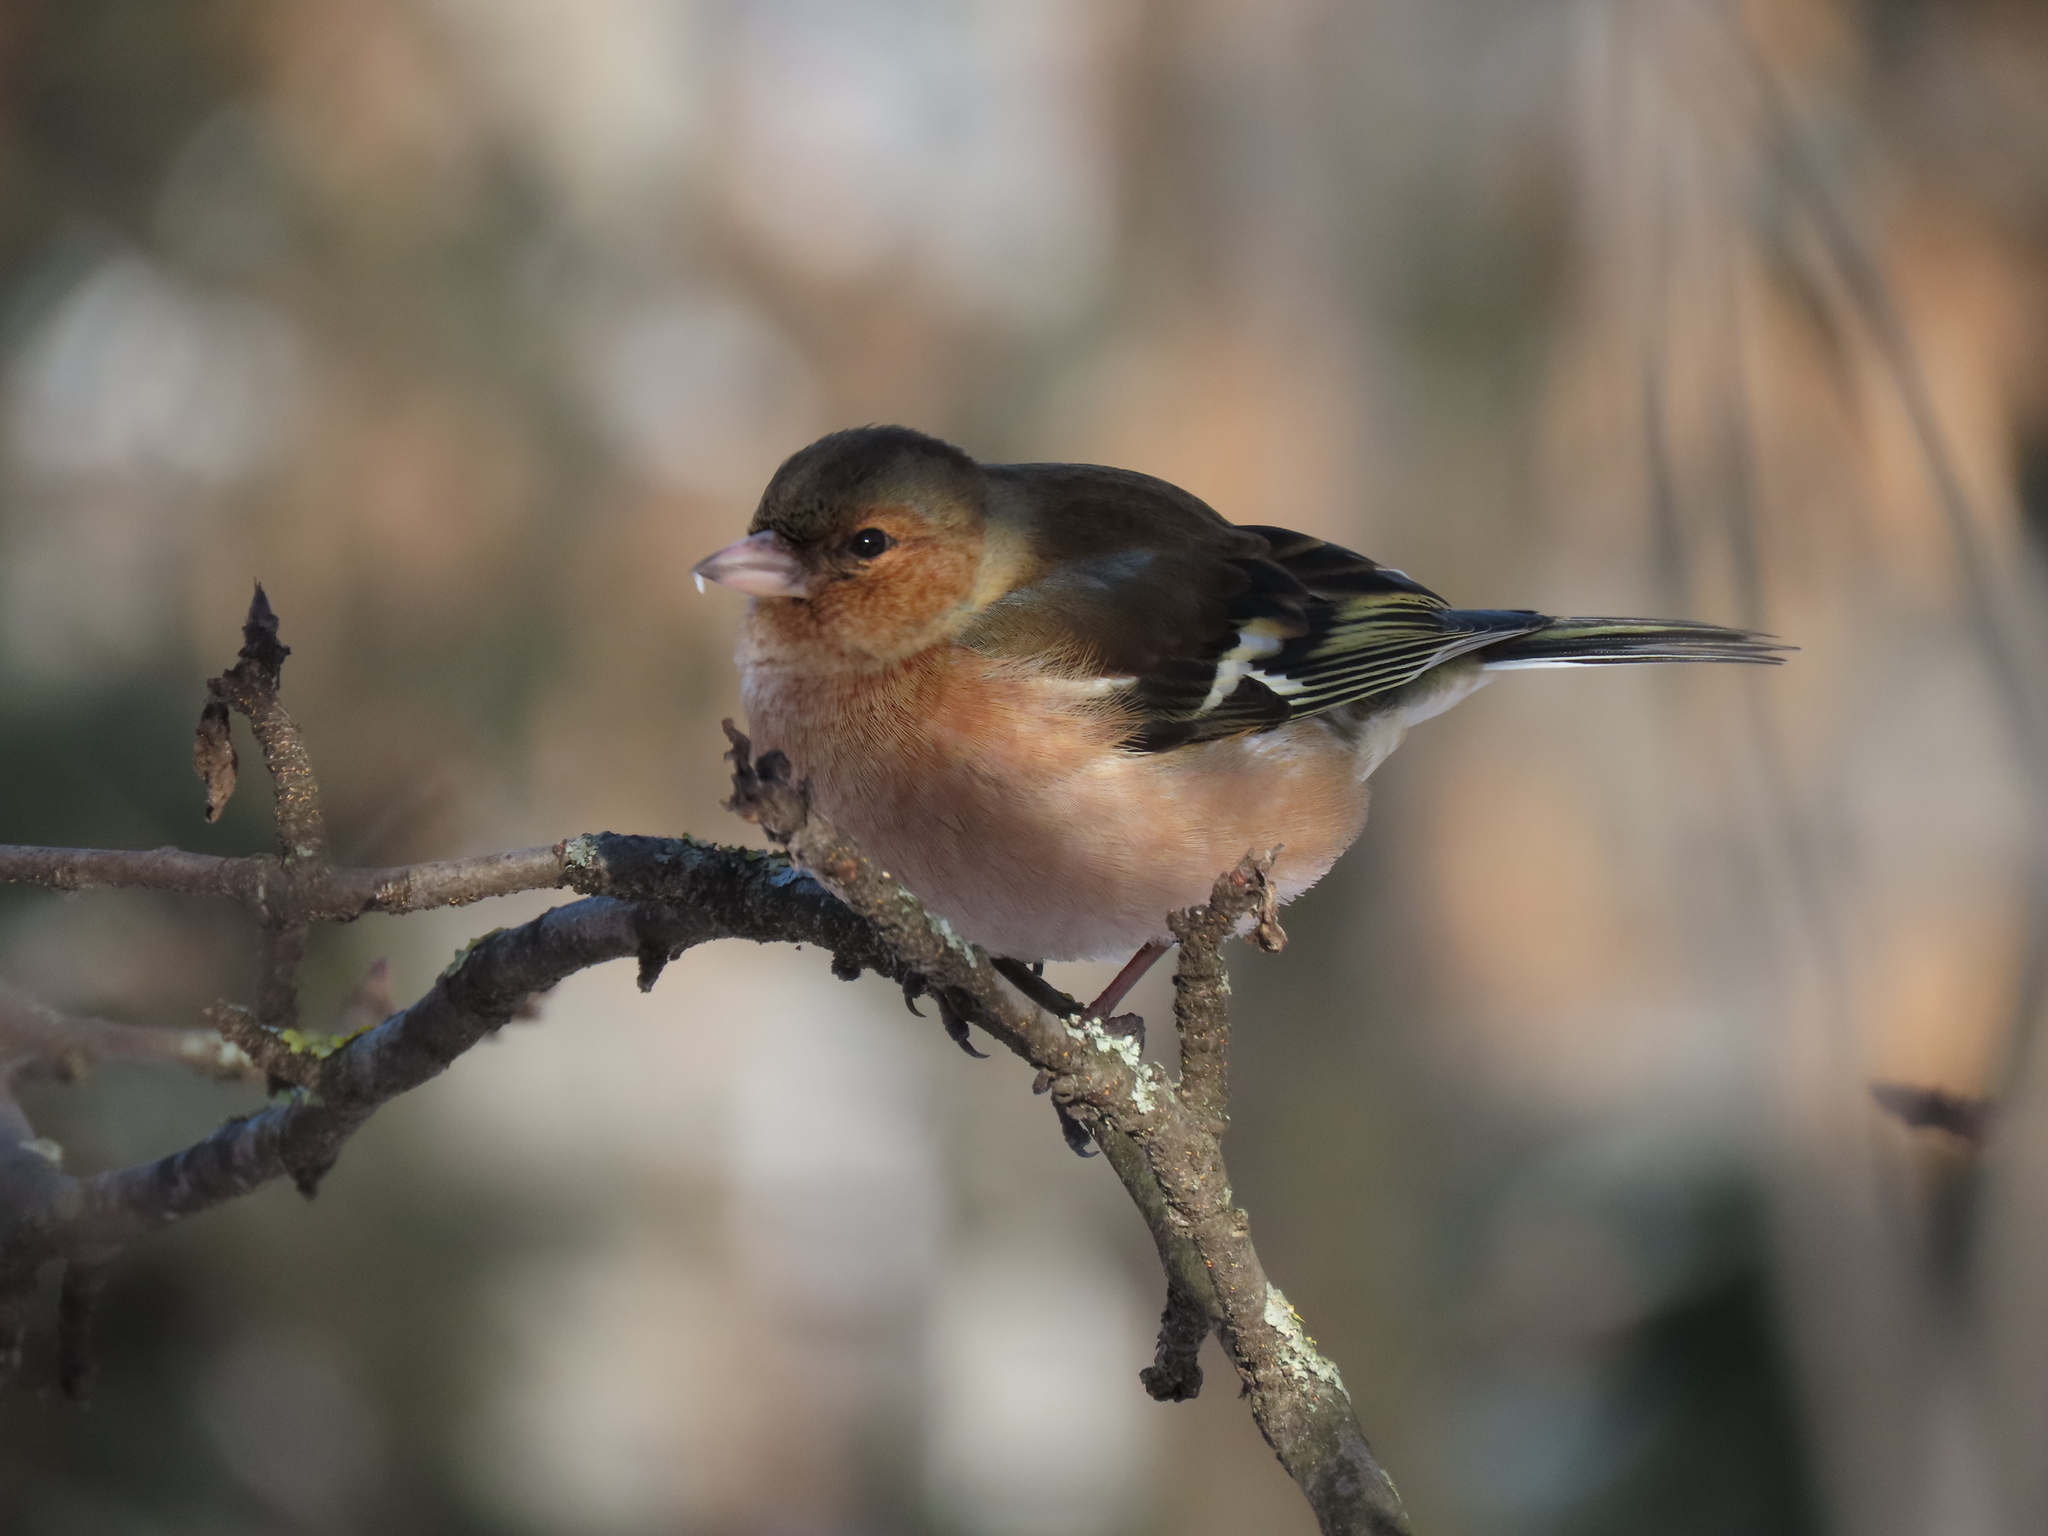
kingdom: Animalia
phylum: Chordata
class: Aves
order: Passeriformes
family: Fringillidae
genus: Fringilla
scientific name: Fringilla coelebs
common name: Common chaffinch
